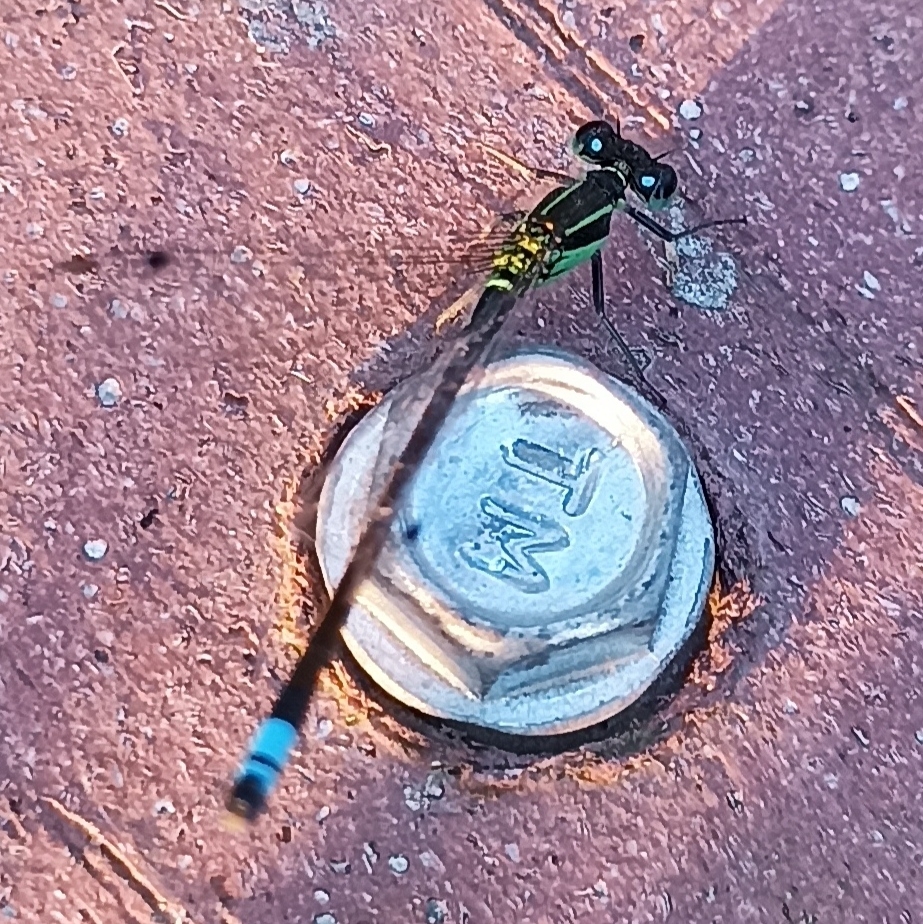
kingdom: Animalia
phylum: Arthropoda
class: Insecta
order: Odonata
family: Coenagrionidae
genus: Ischnura
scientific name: Ischnura ramburii
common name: Rambur's forktail
